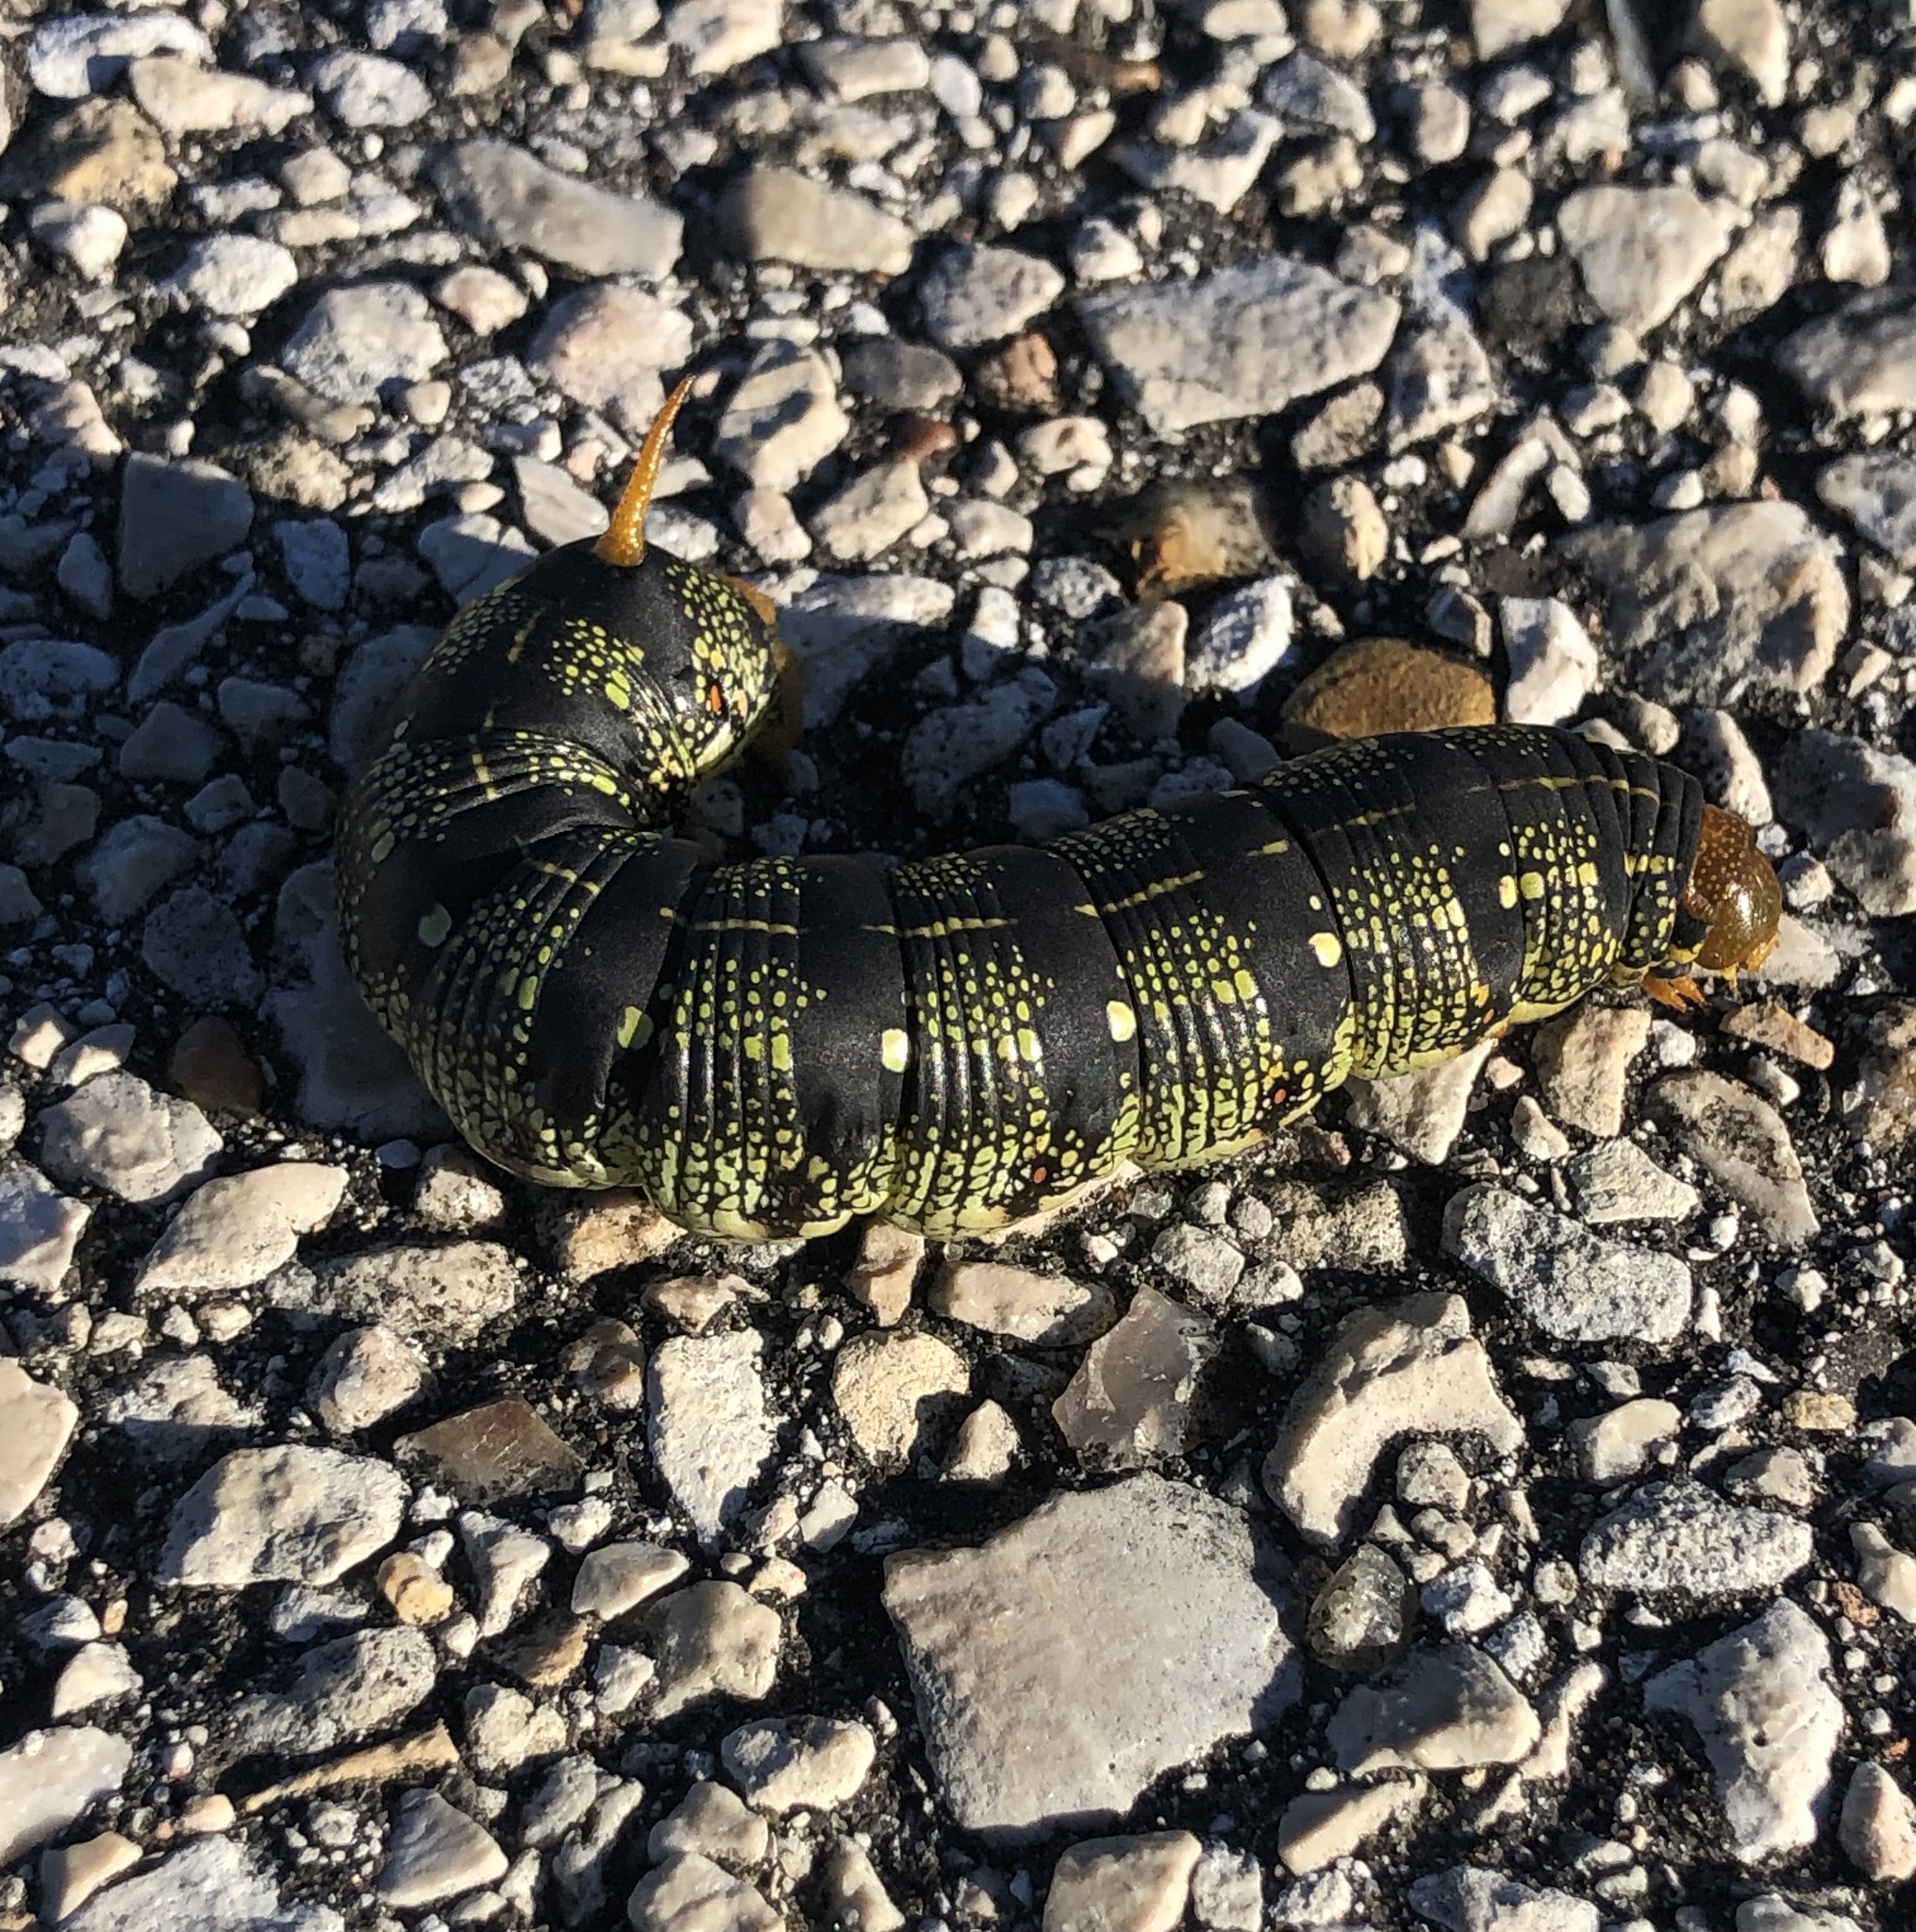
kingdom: Animalia
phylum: Arthropoda
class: Insecta
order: Lepidoptera
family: Sphingidae
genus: Hyles
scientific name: Hyles lineata
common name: White-lined sphinx
